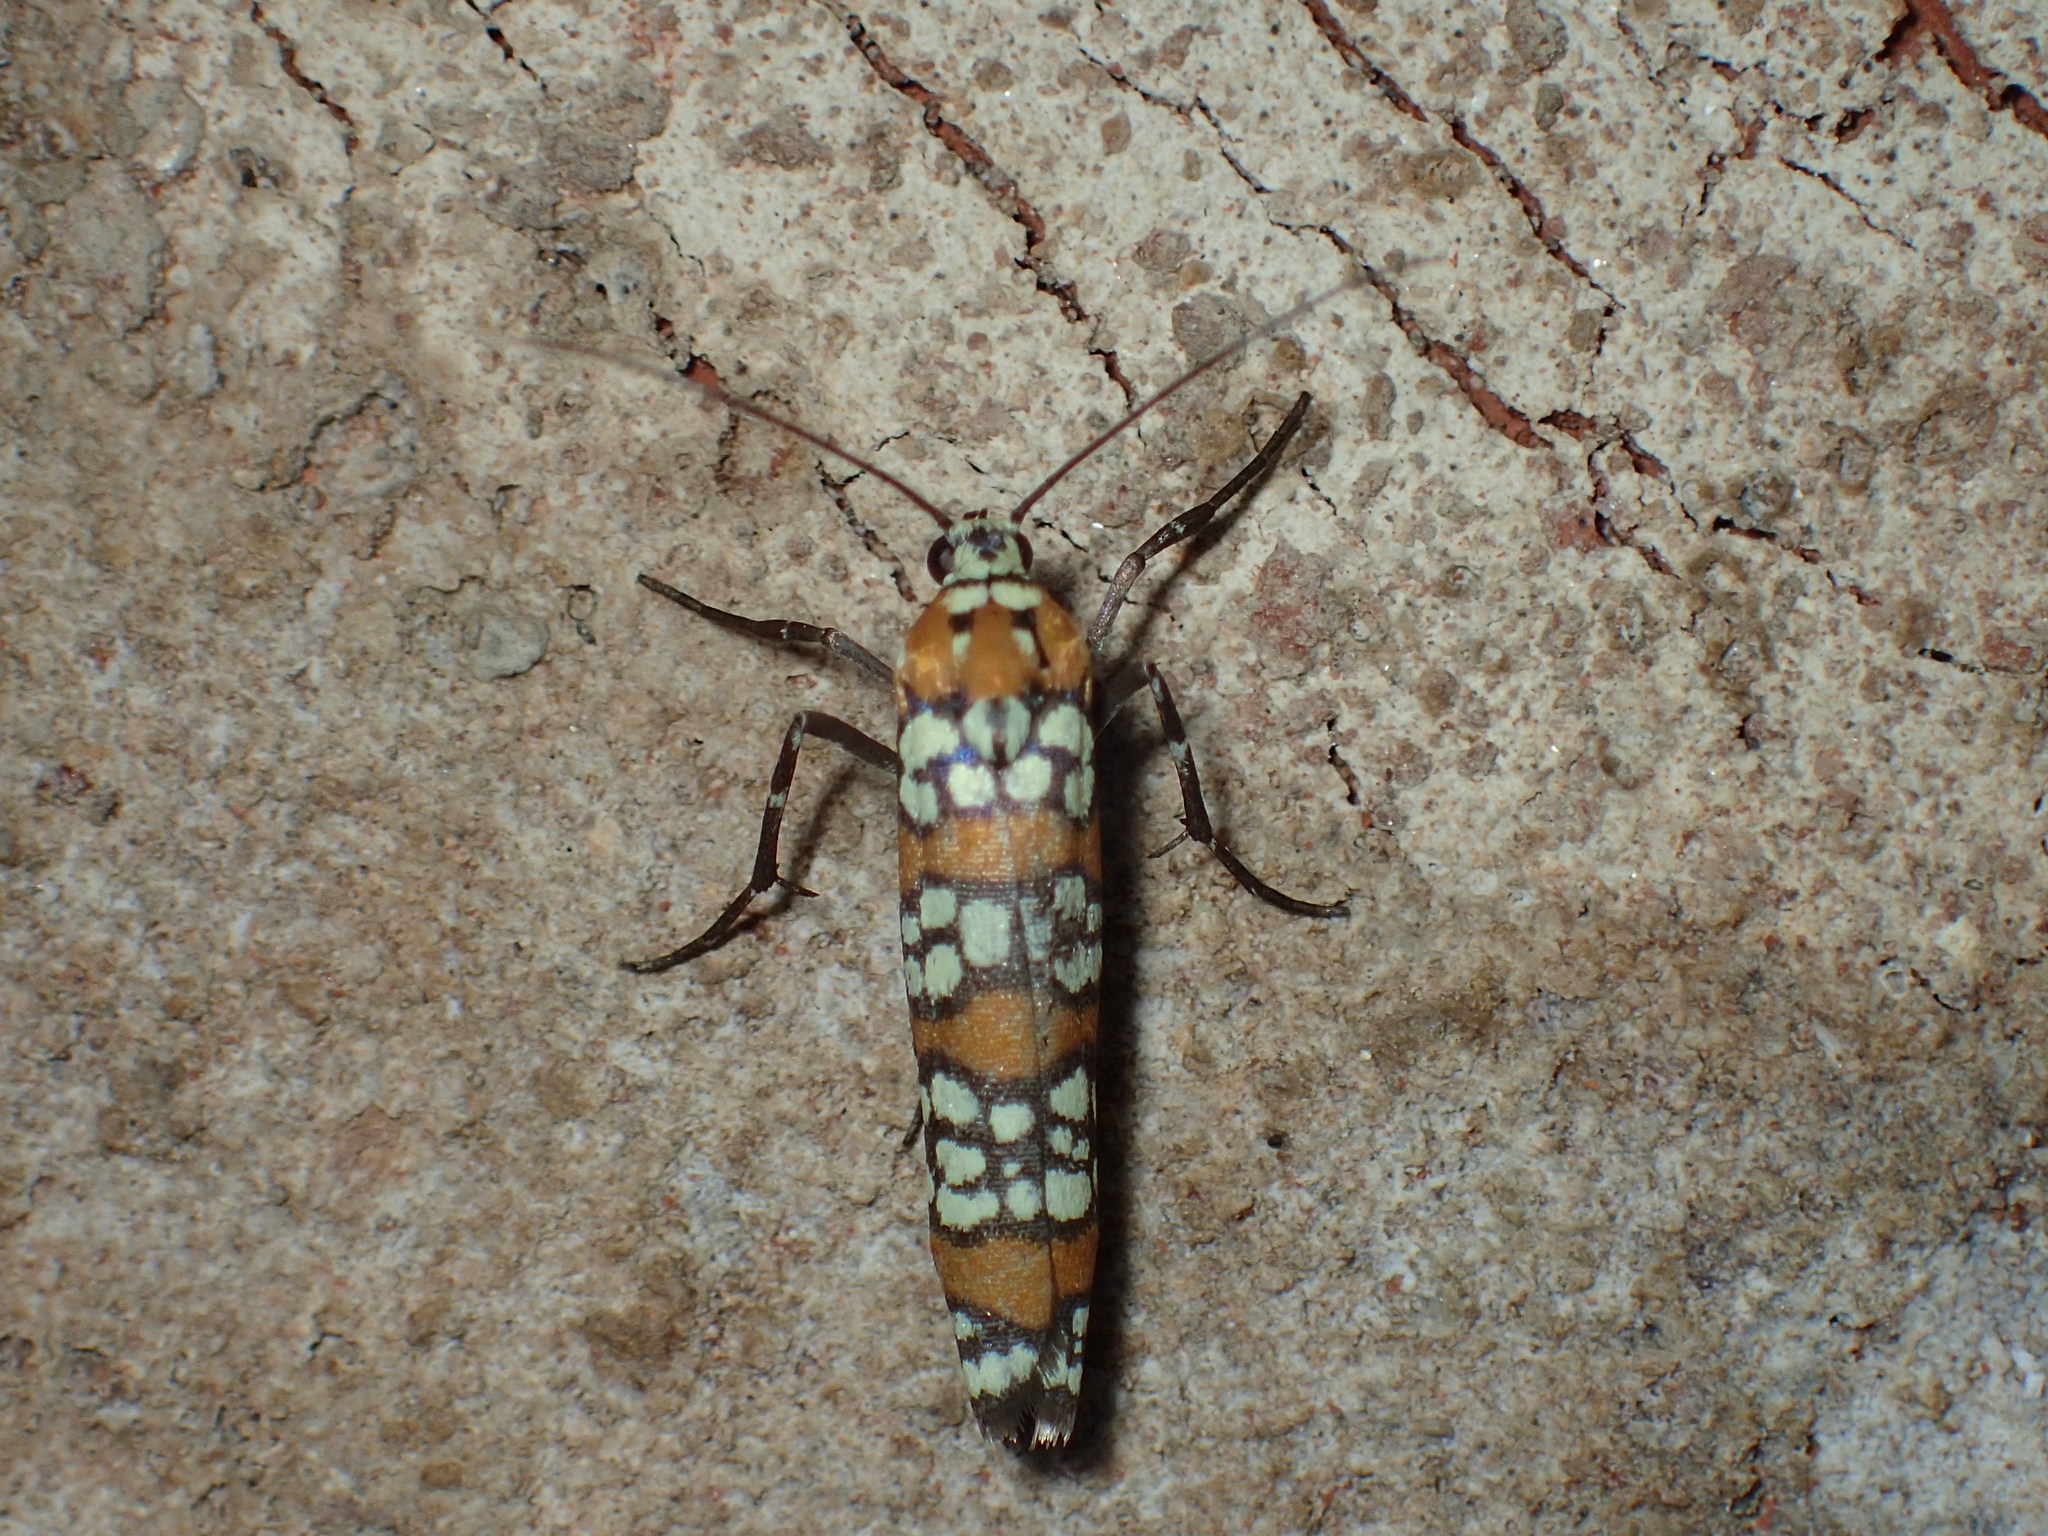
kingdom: Animalia
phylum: Arthropoda
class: Insecta
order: Lepidoptera
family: Attevidae
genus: Atteva
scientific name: Atteva punctella
